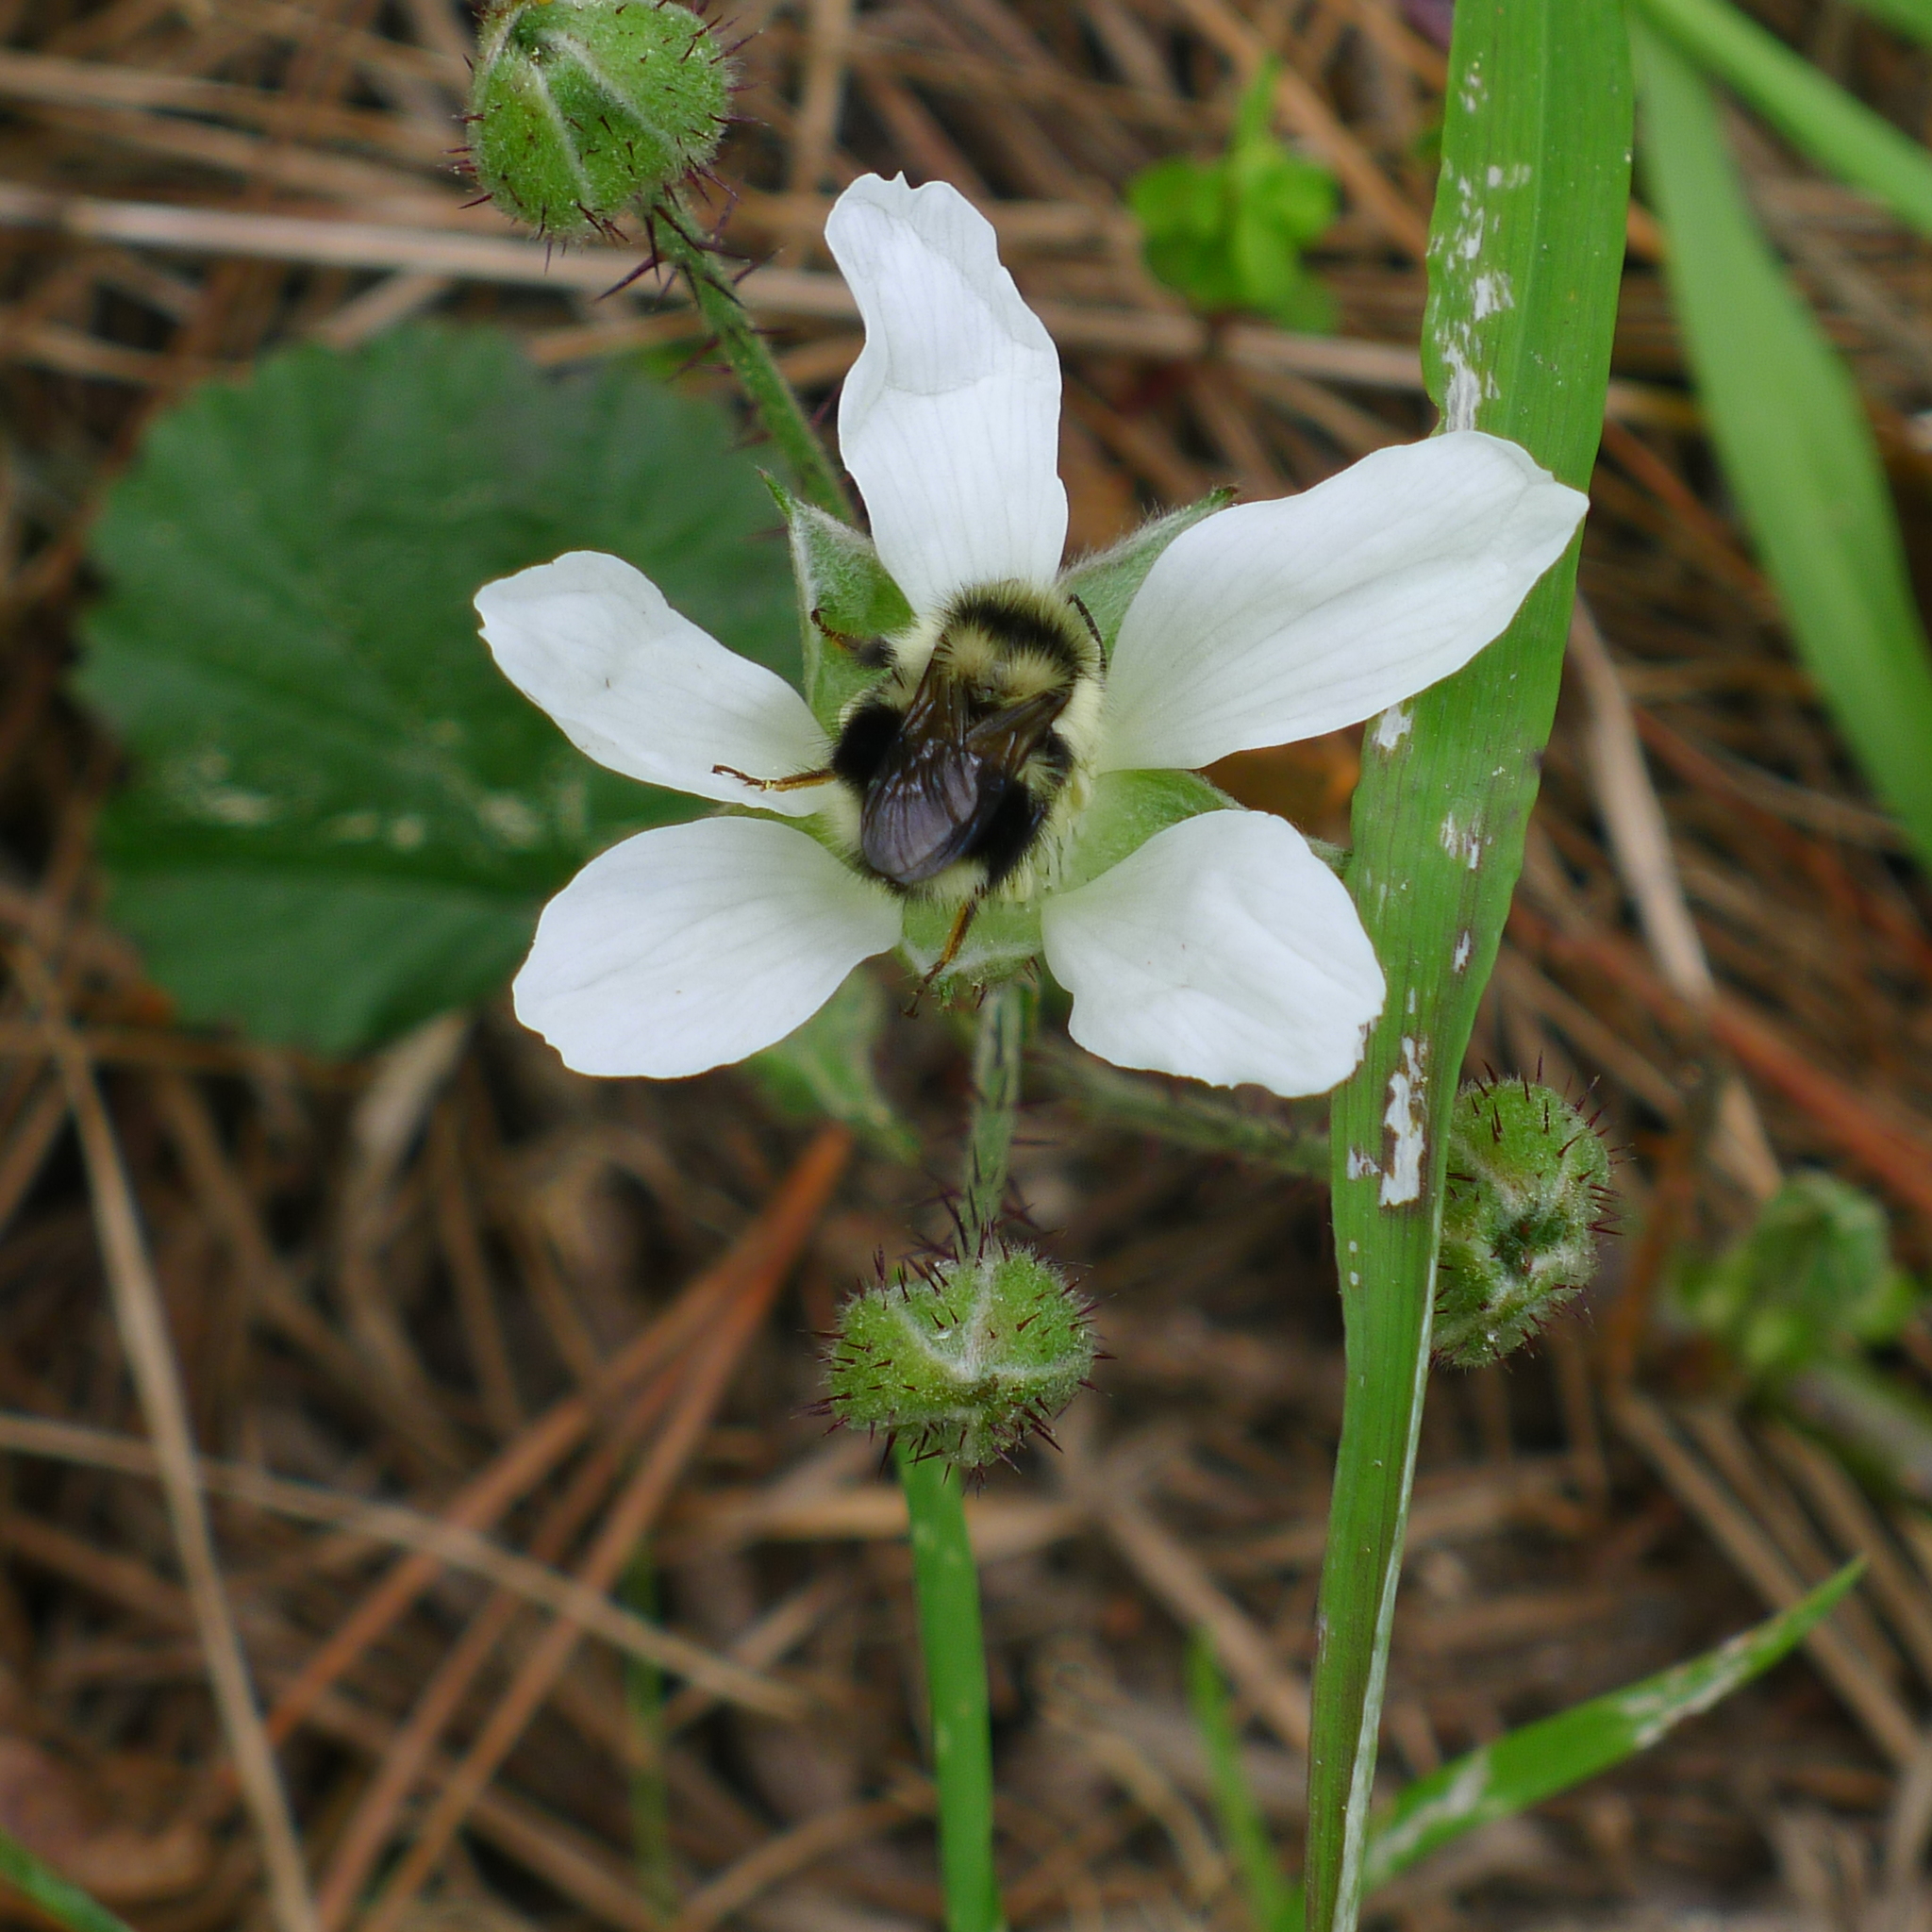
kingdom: Animalia
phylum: Arthropoda
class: Insecta
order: Hymenoptera
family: Apidae
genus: Bombus
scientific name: Bombus melanopygus
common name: Black tail bumble bee
